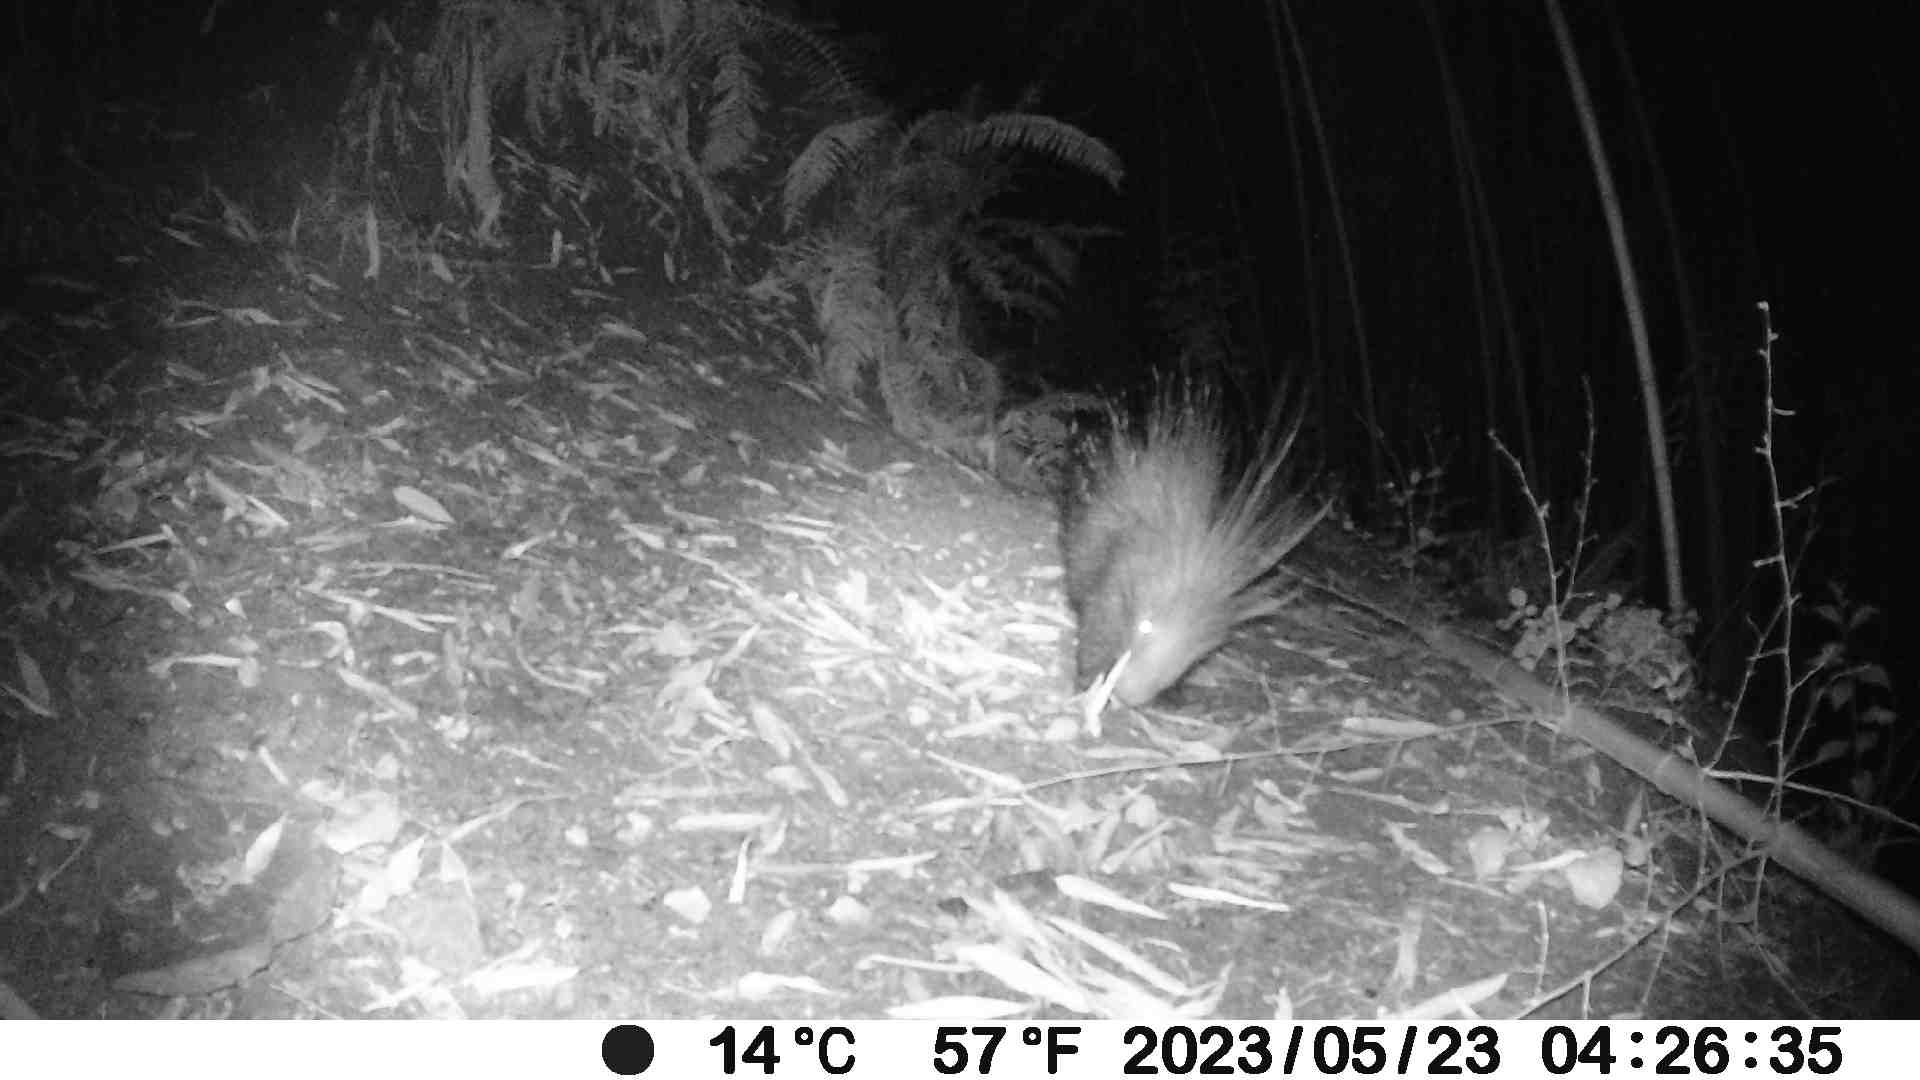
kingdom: Animalia
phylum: Chordata
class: Mammalia
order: Rodentia
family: Hystricidae
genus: Hystrix
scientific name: Hystrix cristata
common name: Crested porcupine
